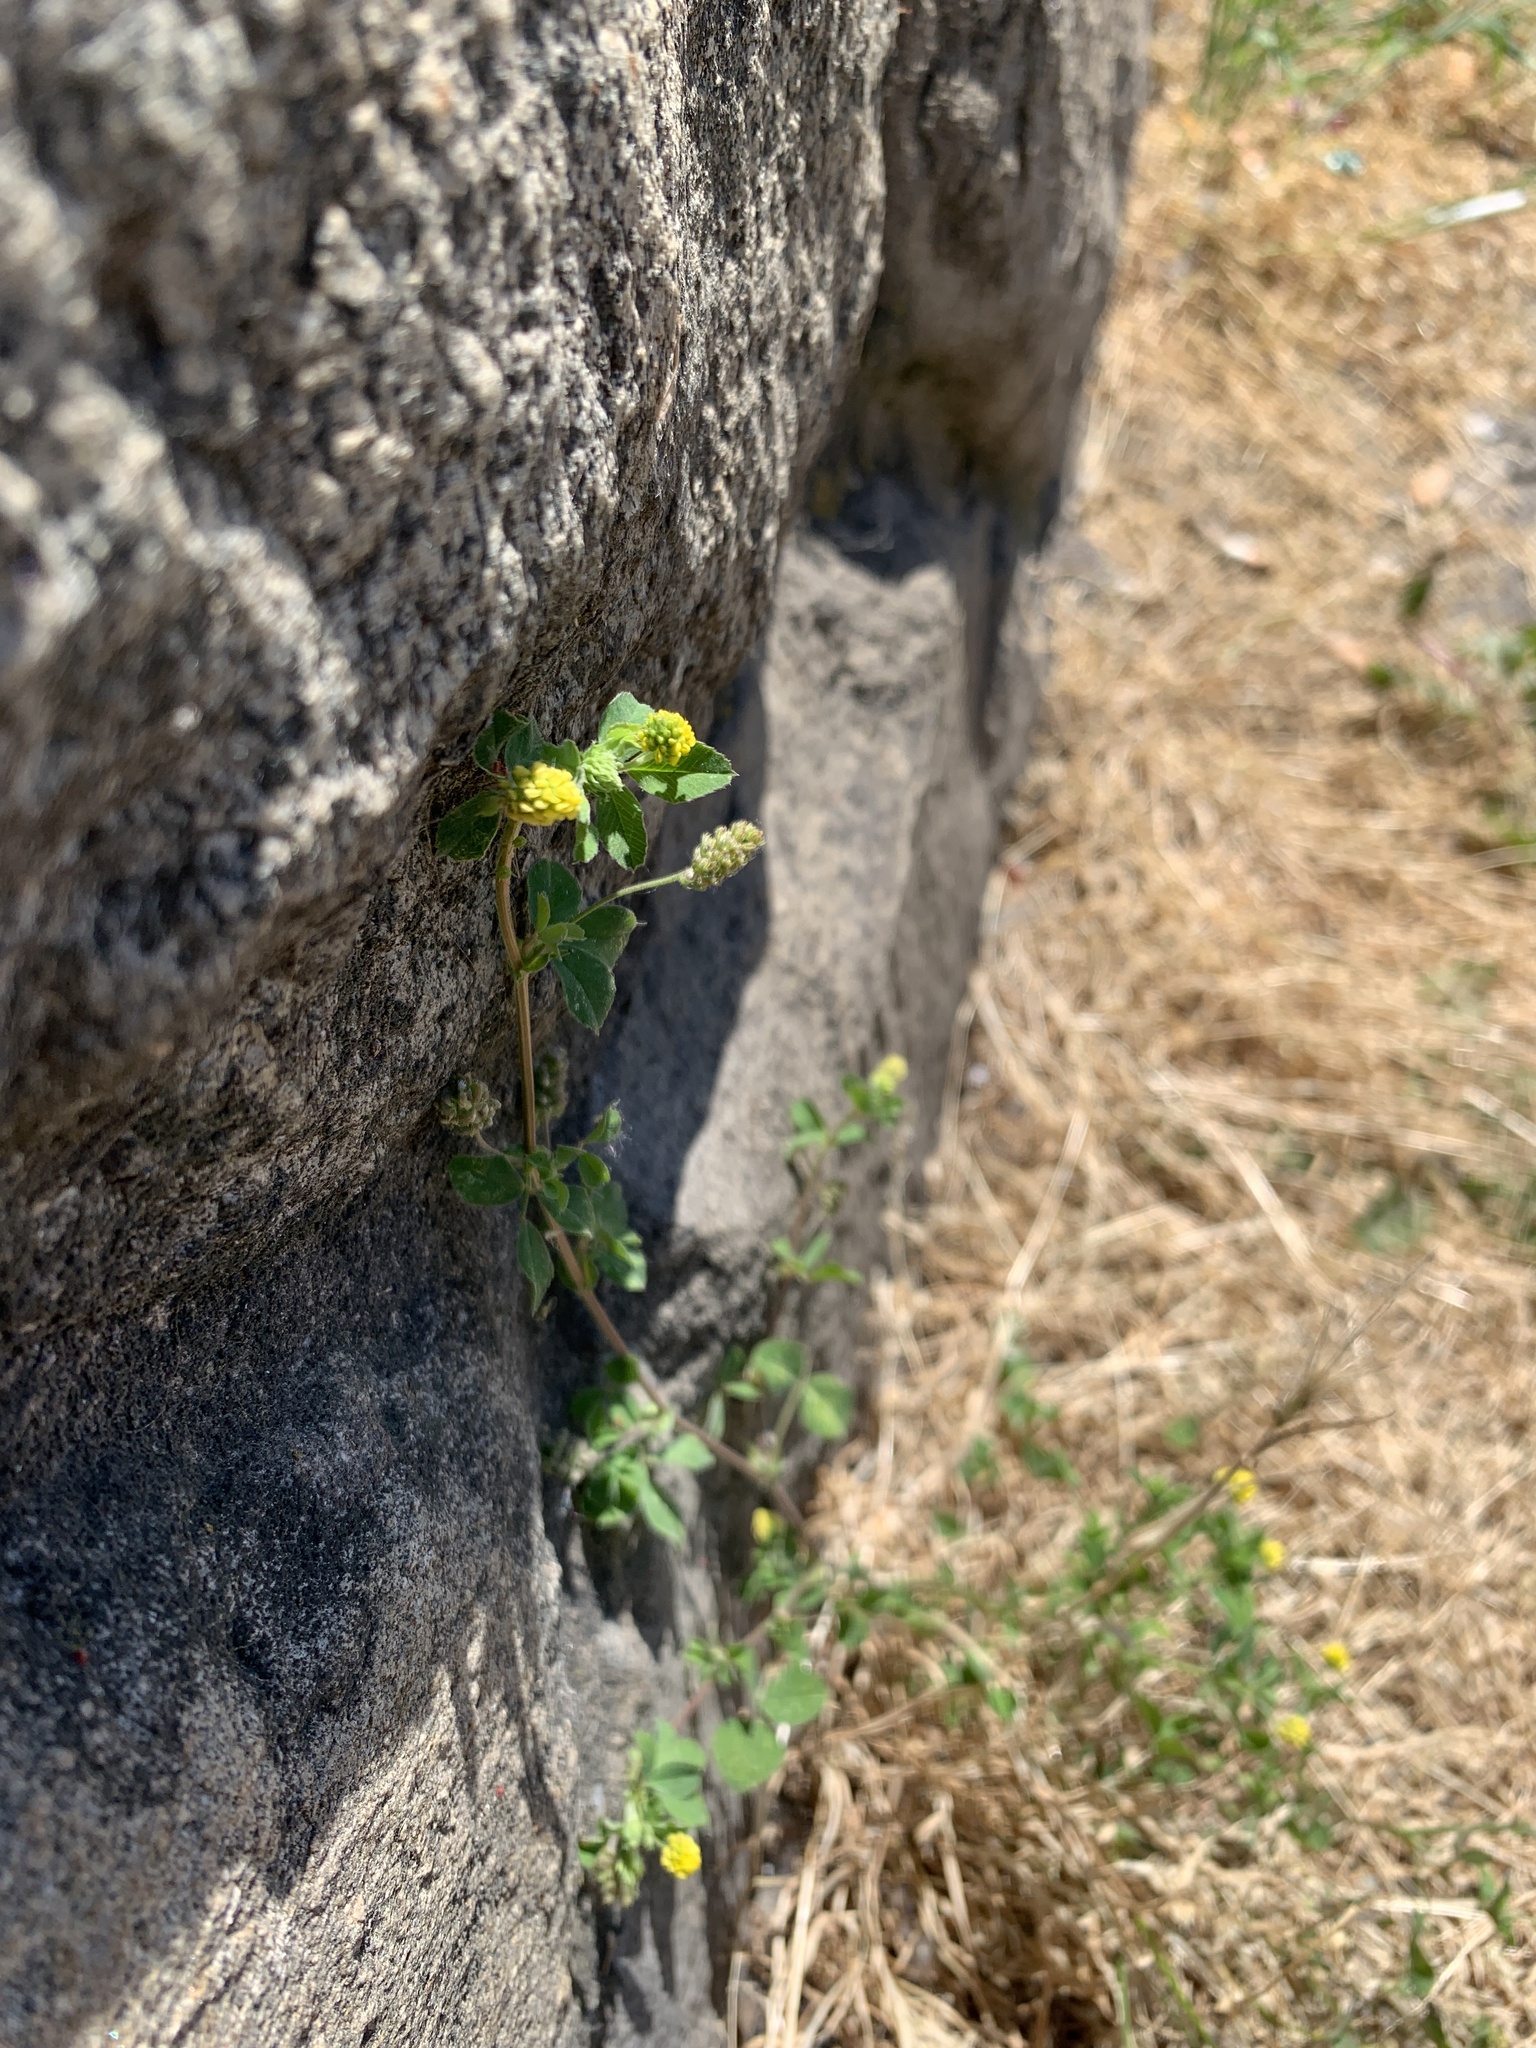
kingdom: Plantae
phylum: Tracheophyta
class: Magnoliopsida
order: Fabales
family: Fabaceae
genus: Medicago
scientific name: Medicago lupulina
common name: Black medick
